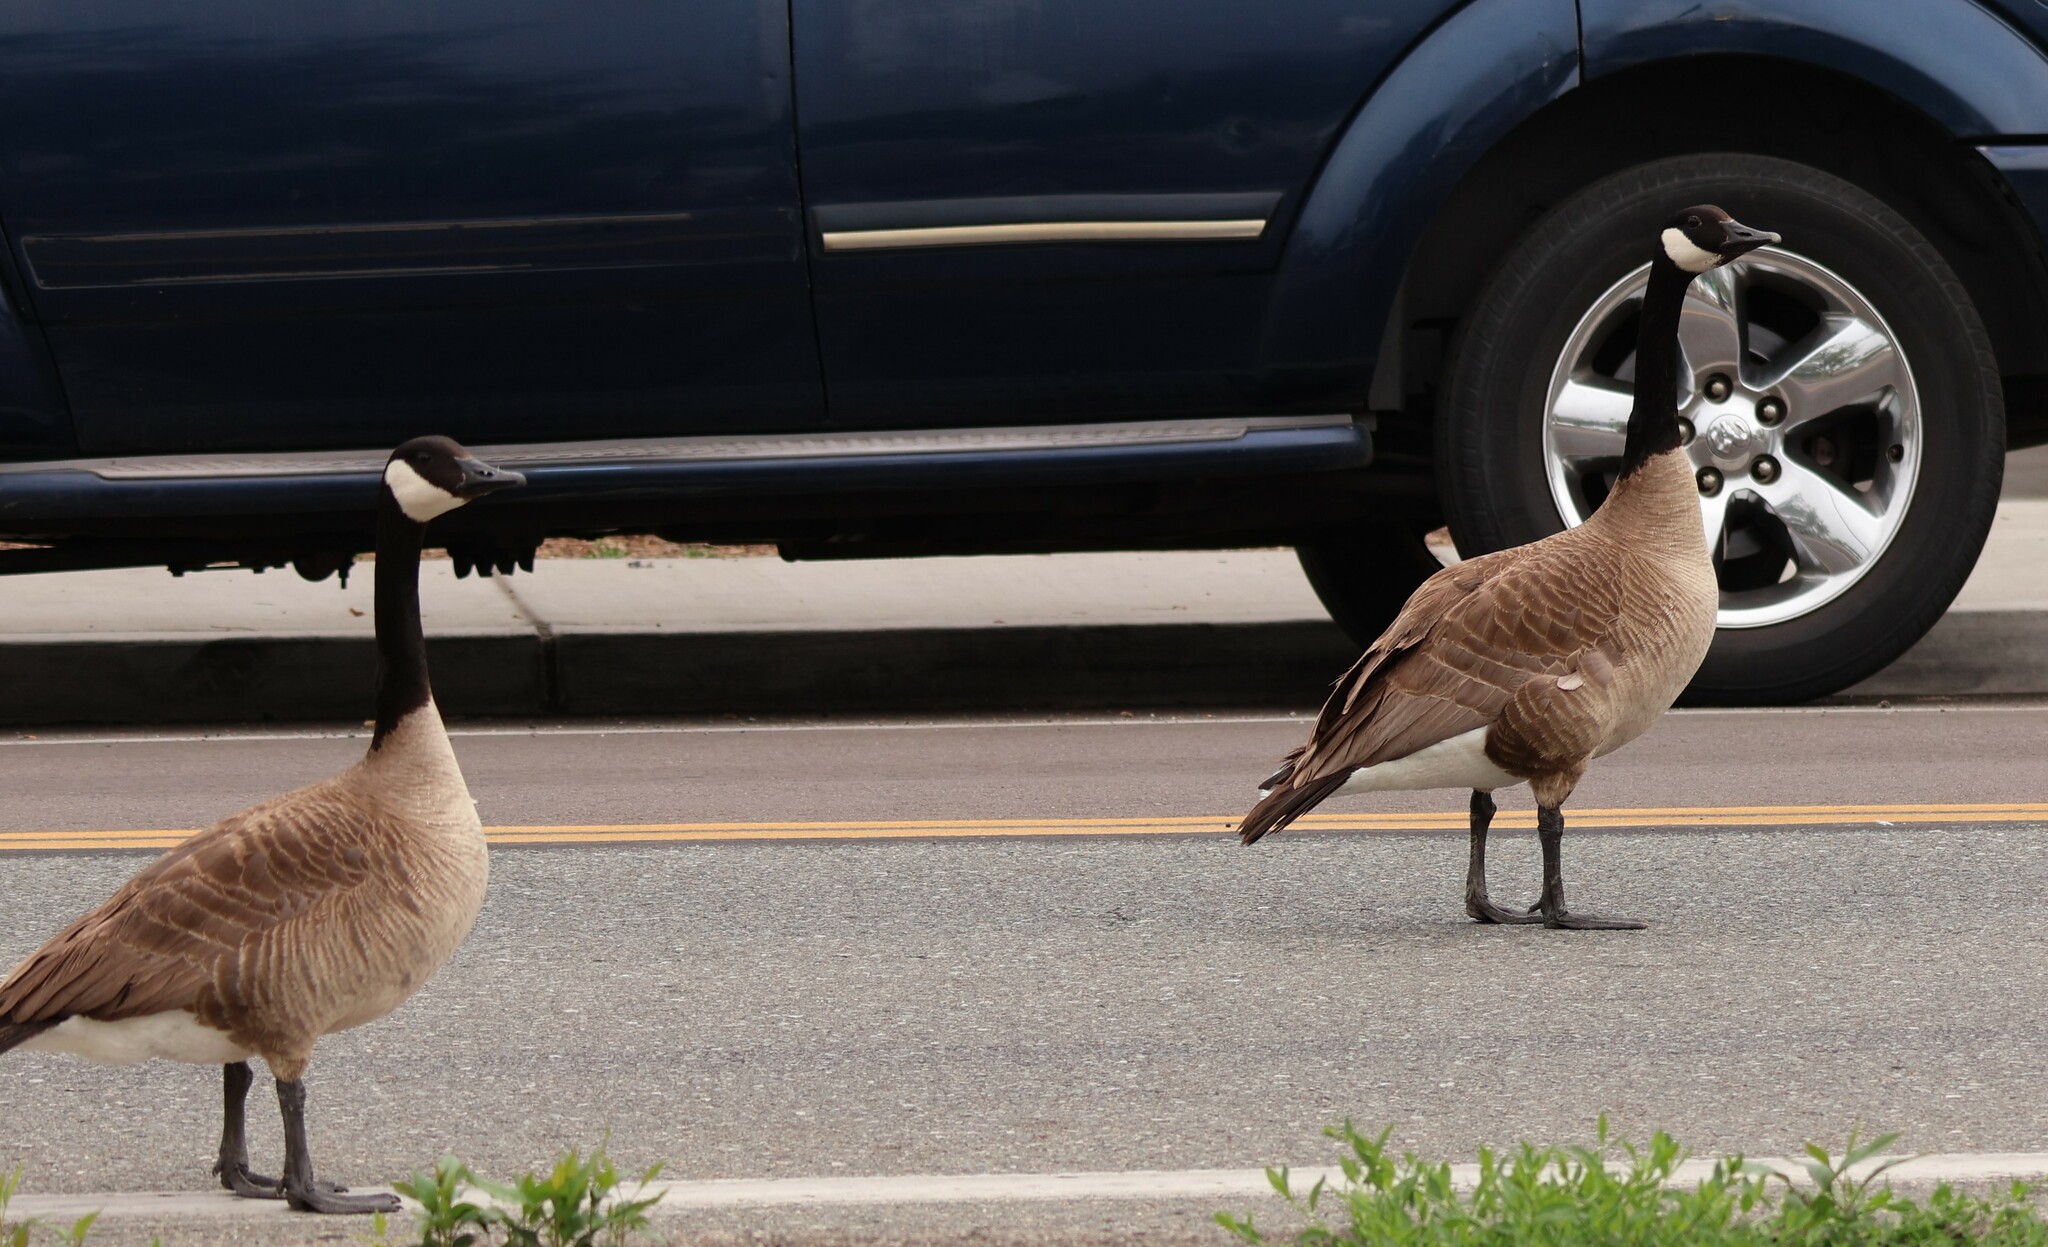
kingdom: Animalia
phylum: Chordata
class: Aves
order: Anseriformes
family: Anatidae
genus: Branta
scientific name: Branta canadensis
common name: Canada goose
